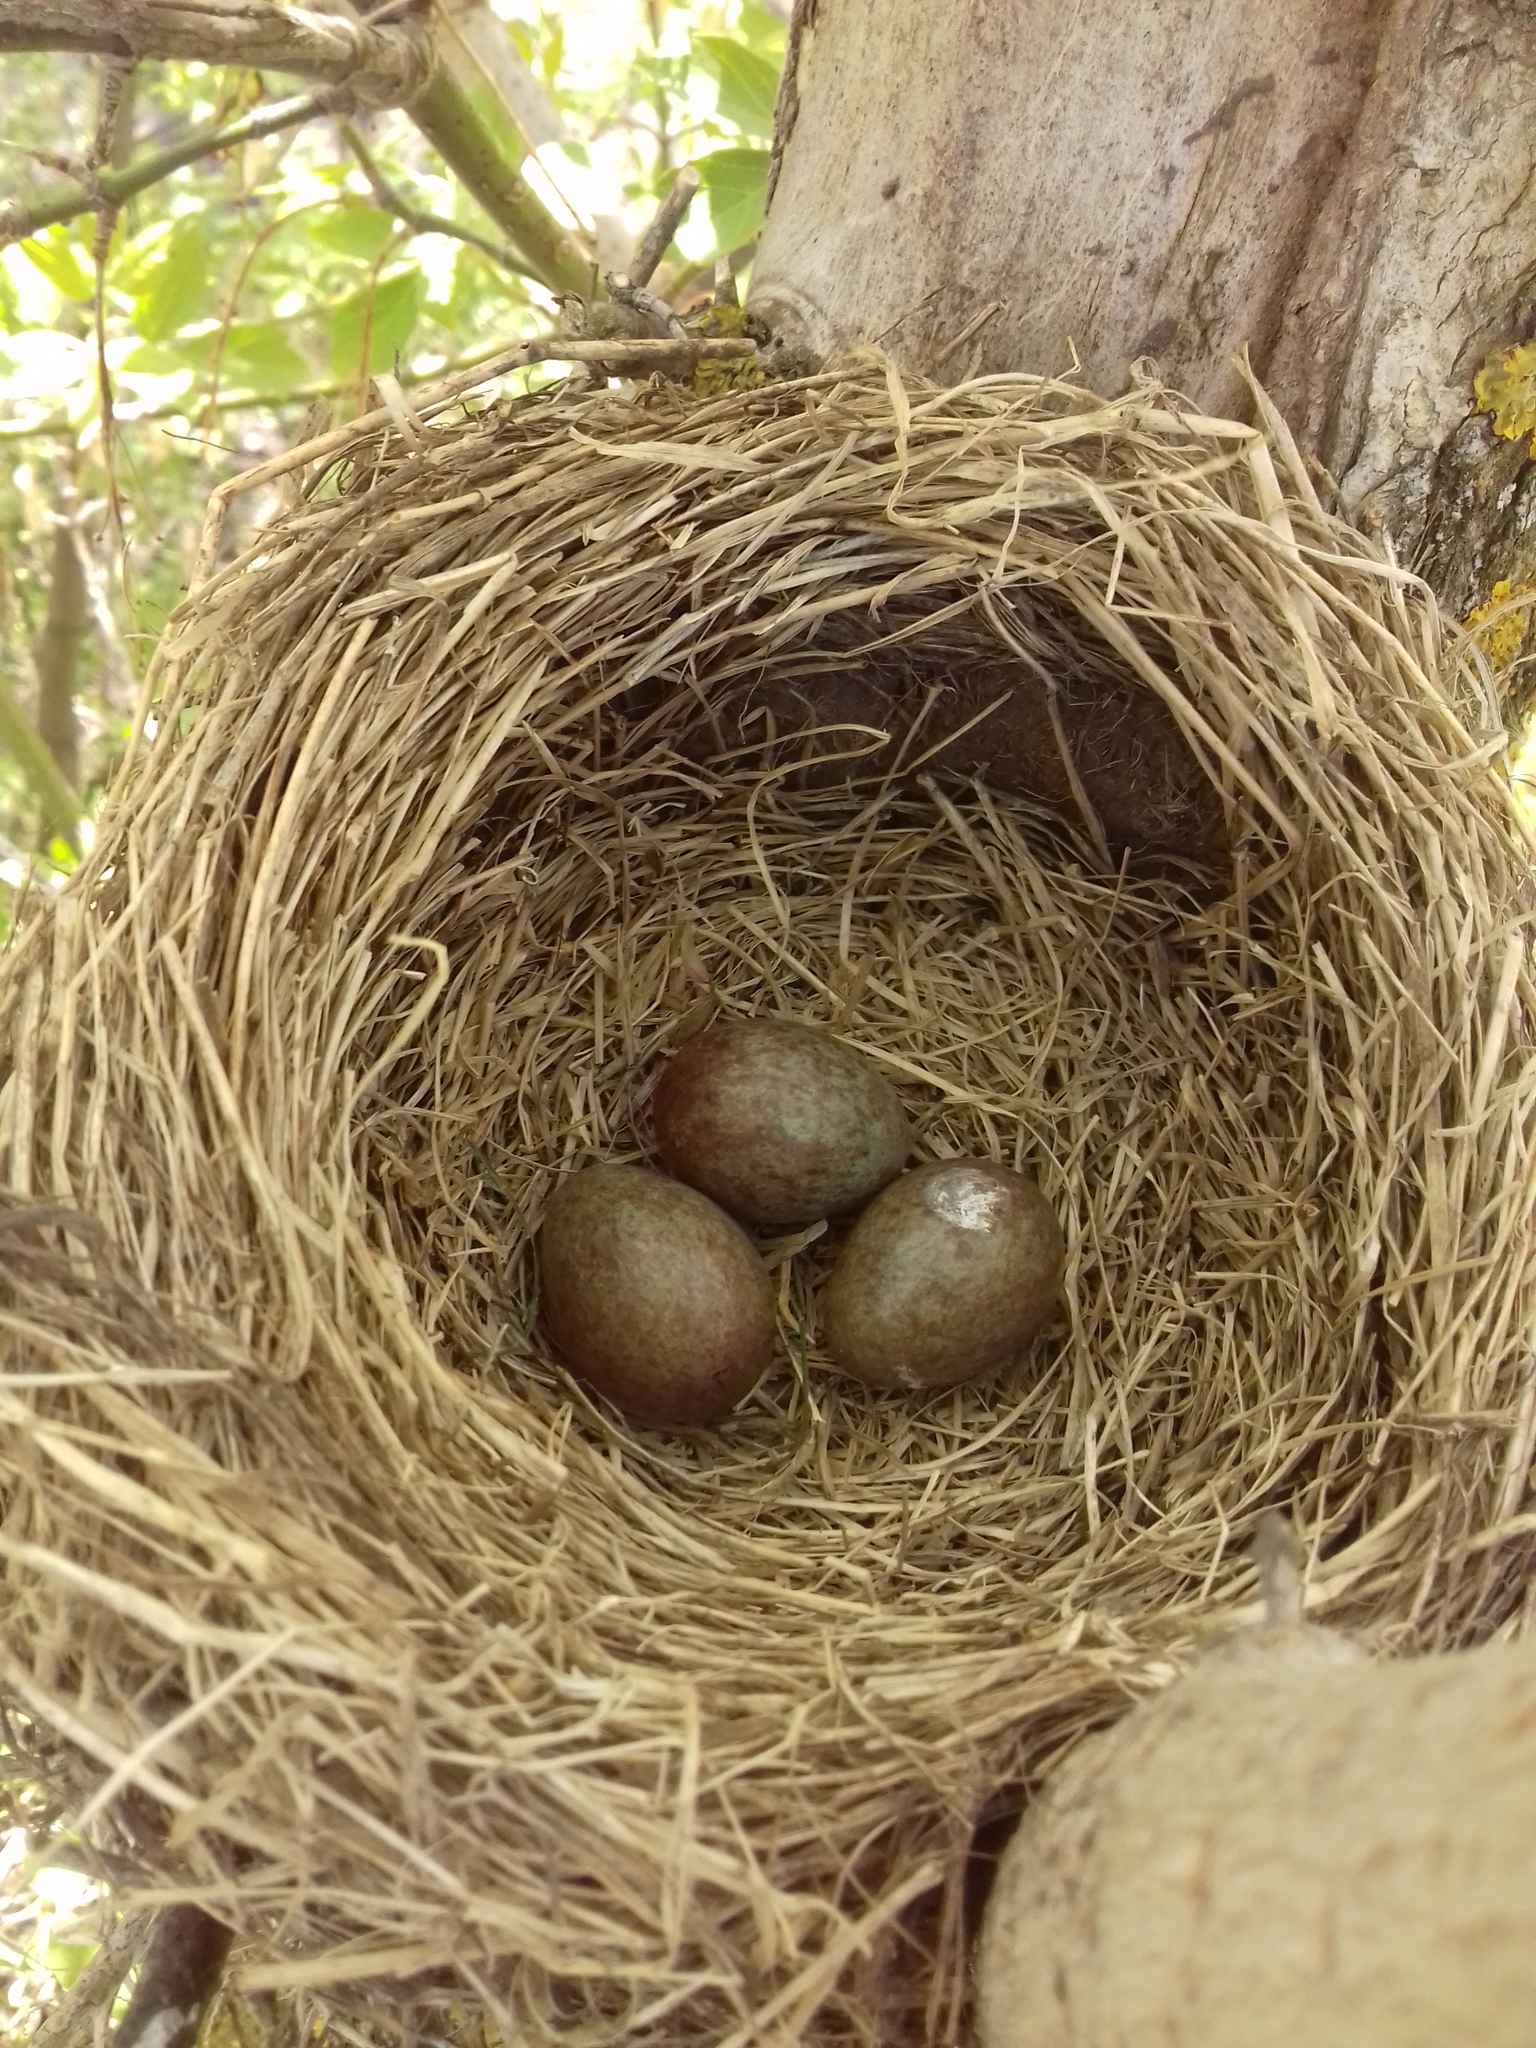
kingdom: Animalia
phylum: Chordata
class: Aves
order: Passeriformes
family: Turdidae
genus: Turdus
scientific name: Turdus pilaris
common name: Fieldfare
